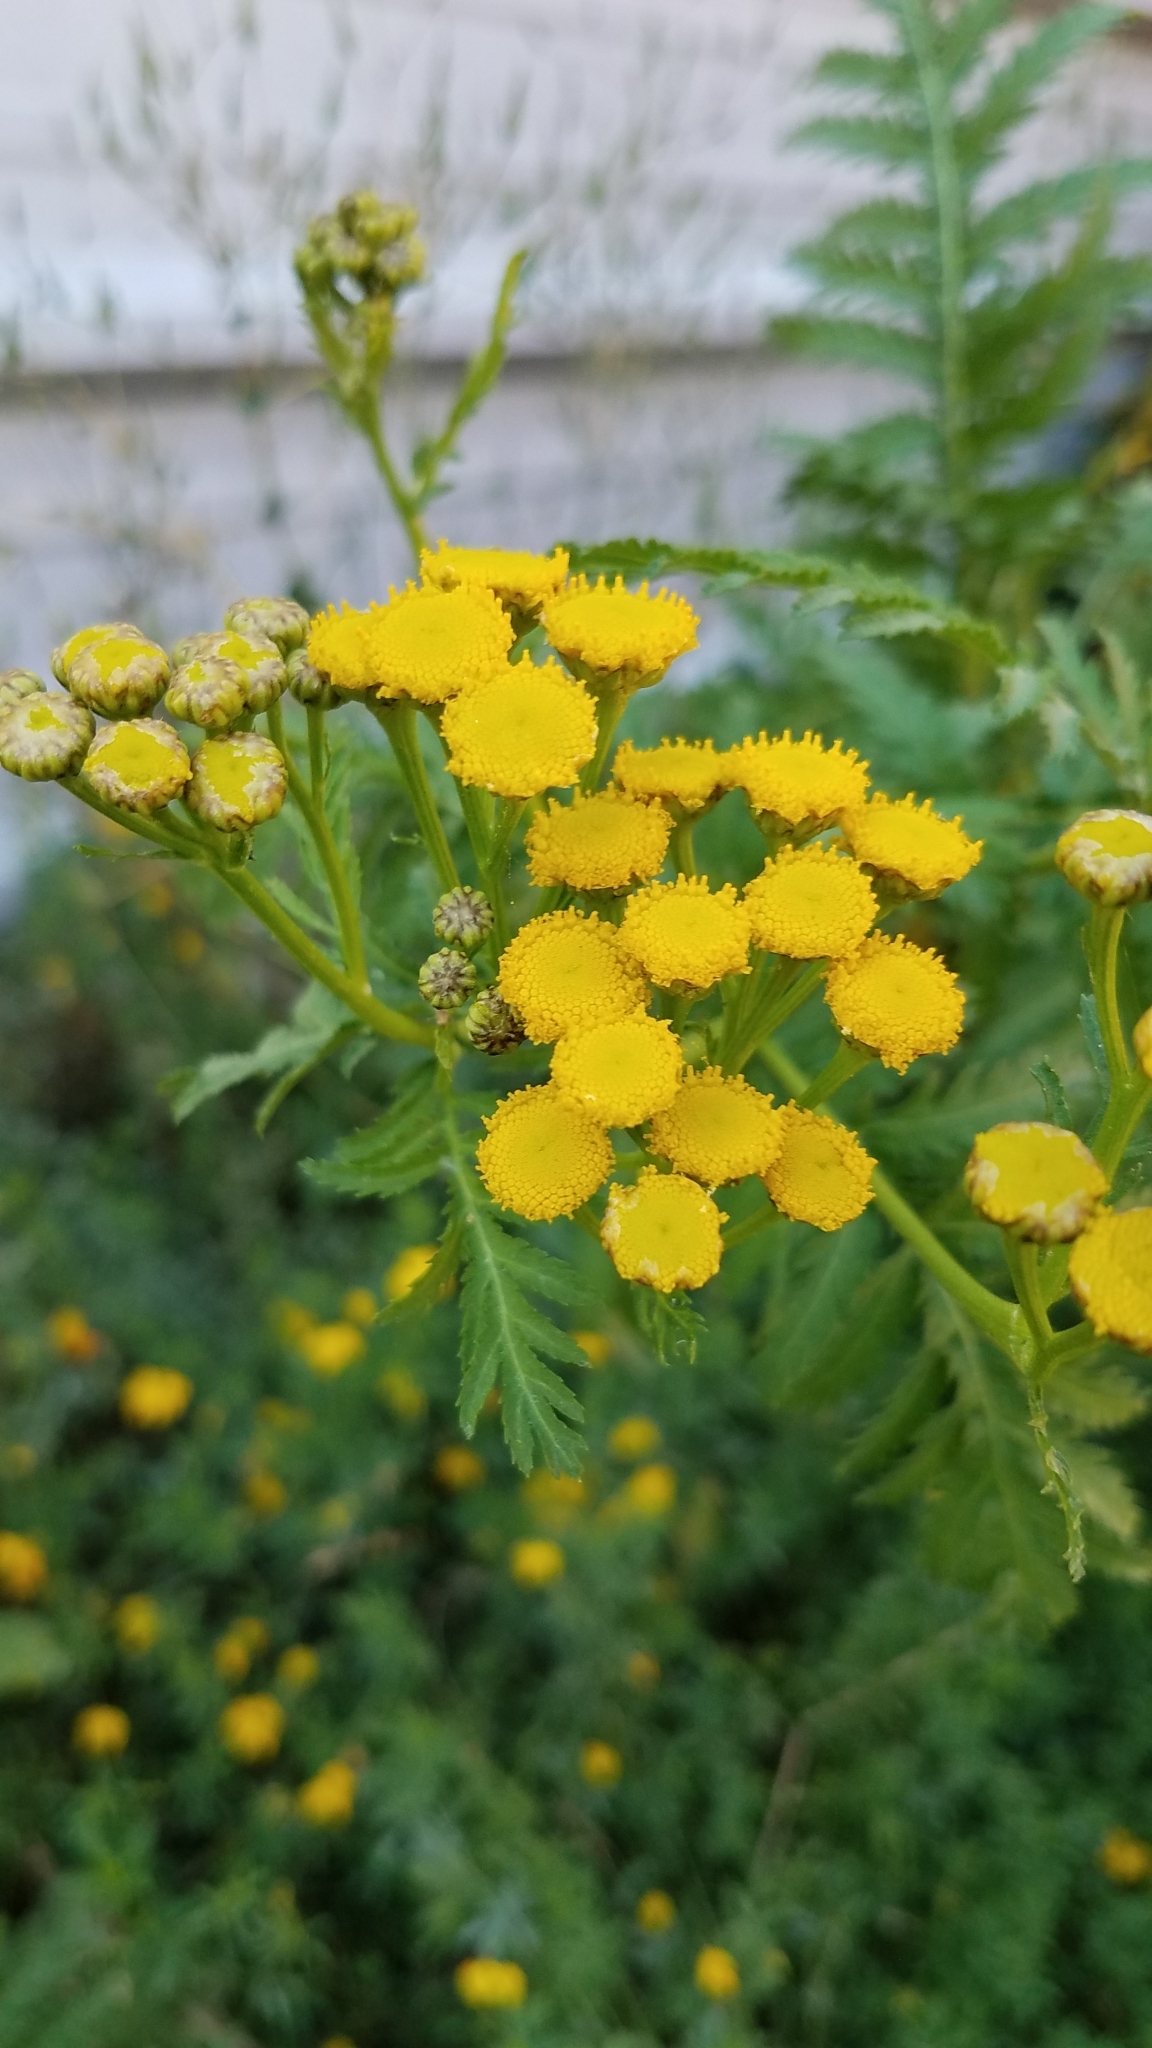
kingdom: Plantae
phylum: Tracheophyta
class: Magnoliopsida
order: Asterales
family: Asteraceae
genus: Tanacetum
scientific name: Tanacetum vulgare
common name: Common tansy
